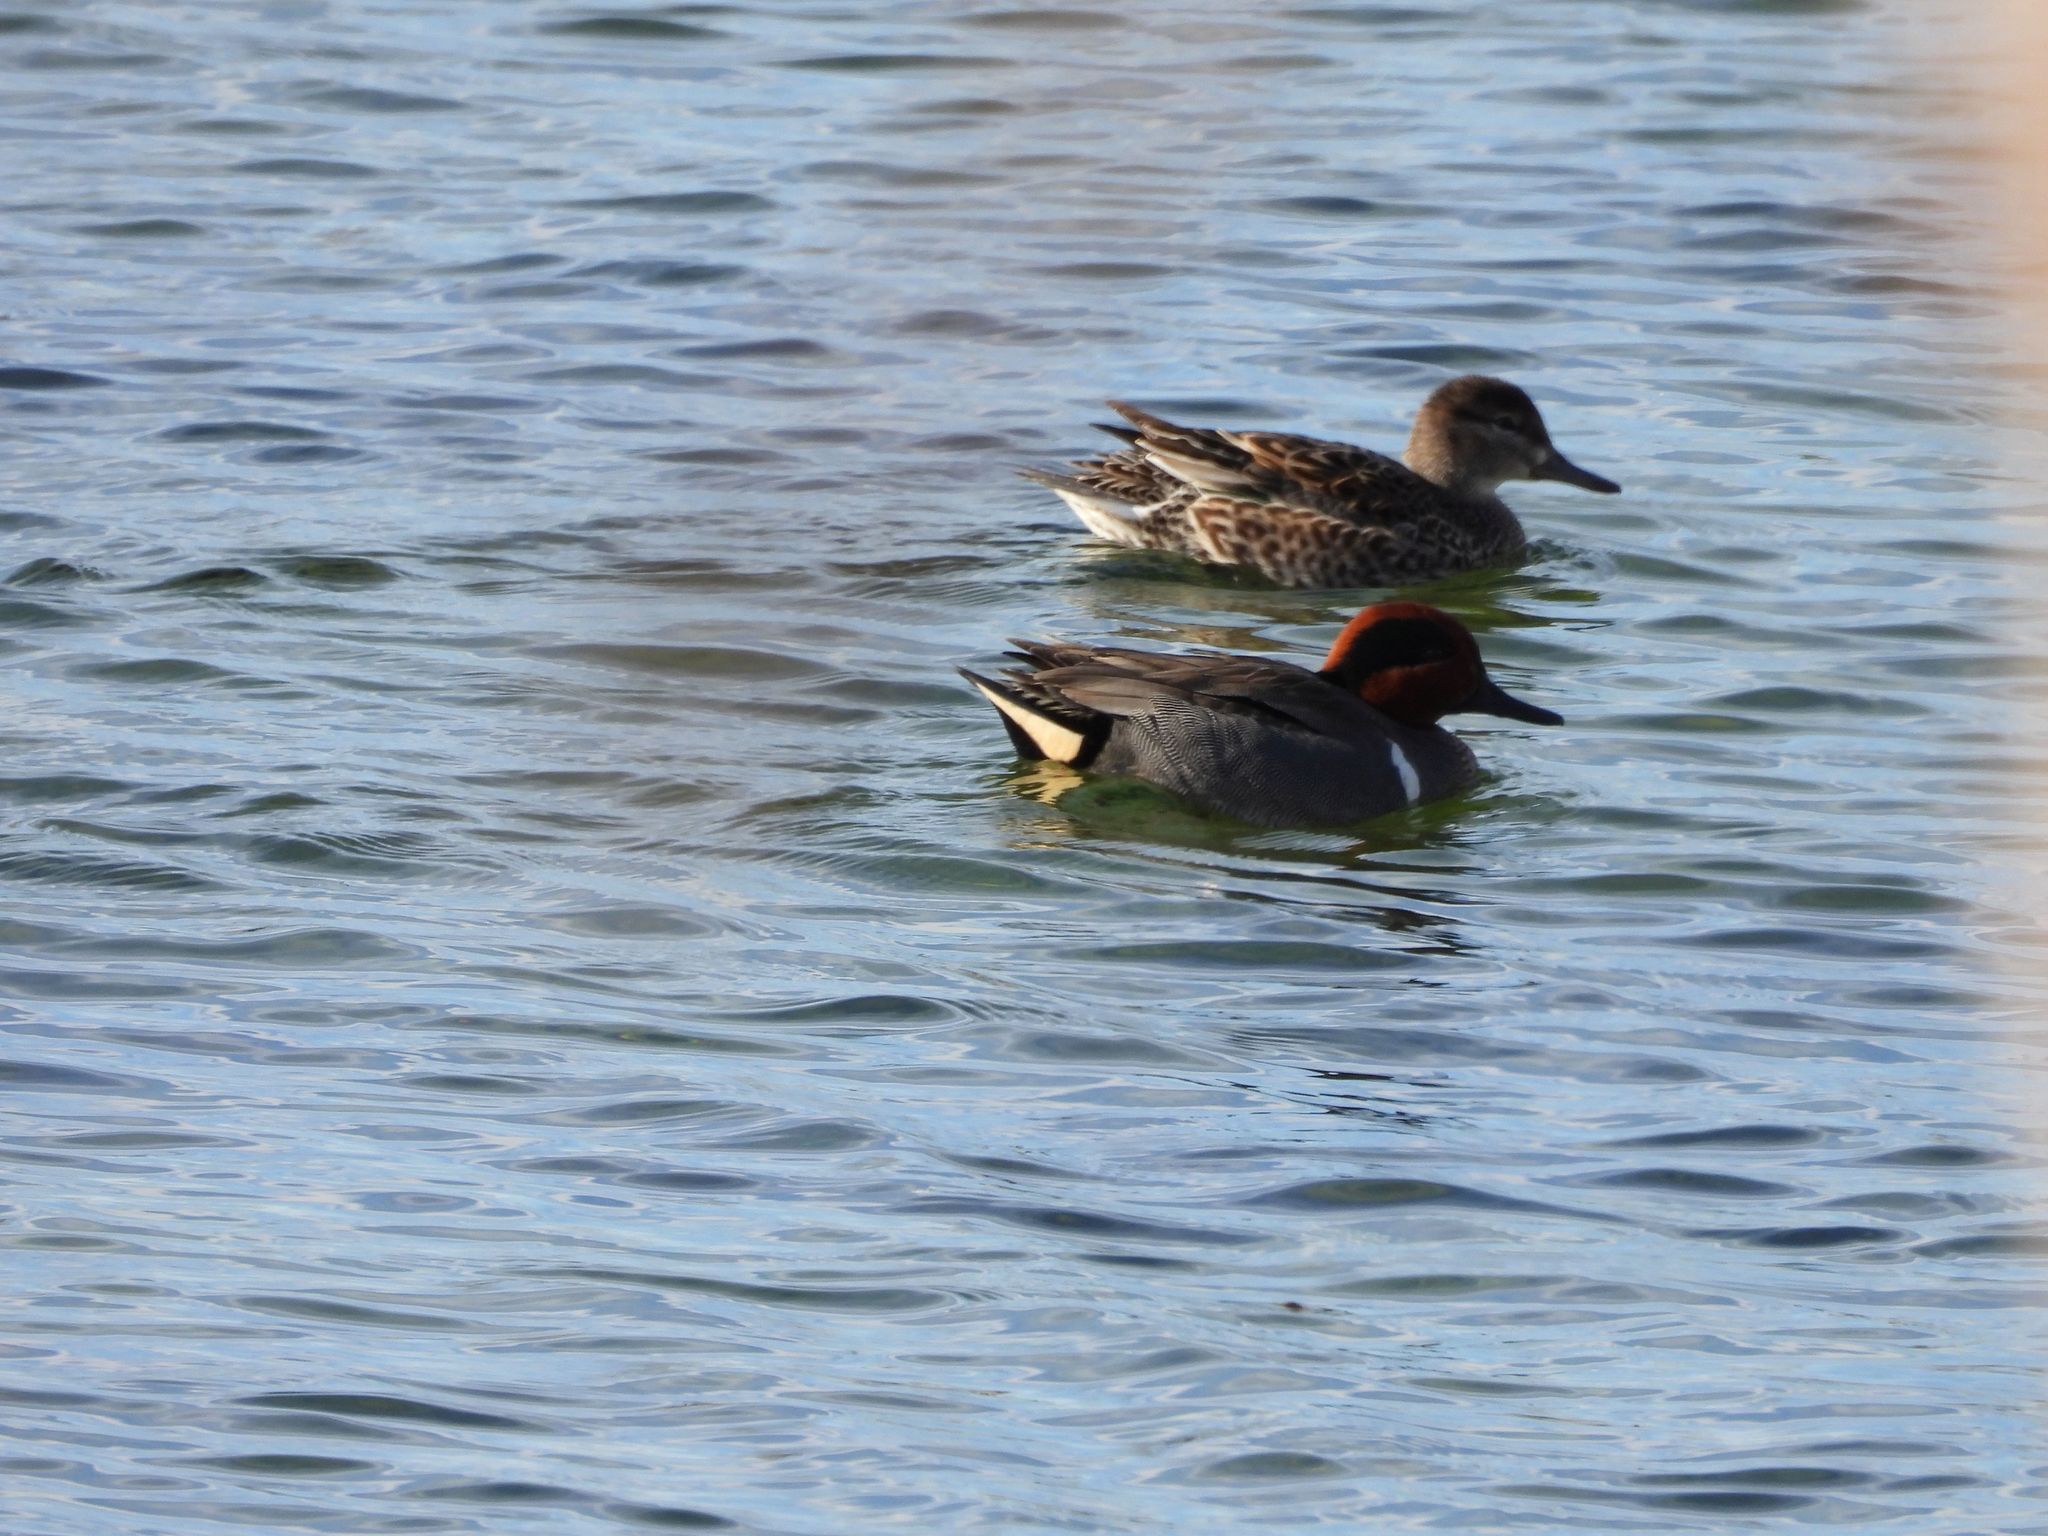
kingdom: Animalia
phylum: Chordata
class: Aves
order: Anseriformes
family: Anatidae
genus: Anas
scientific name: Anas crecca
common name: Eurasian teal
